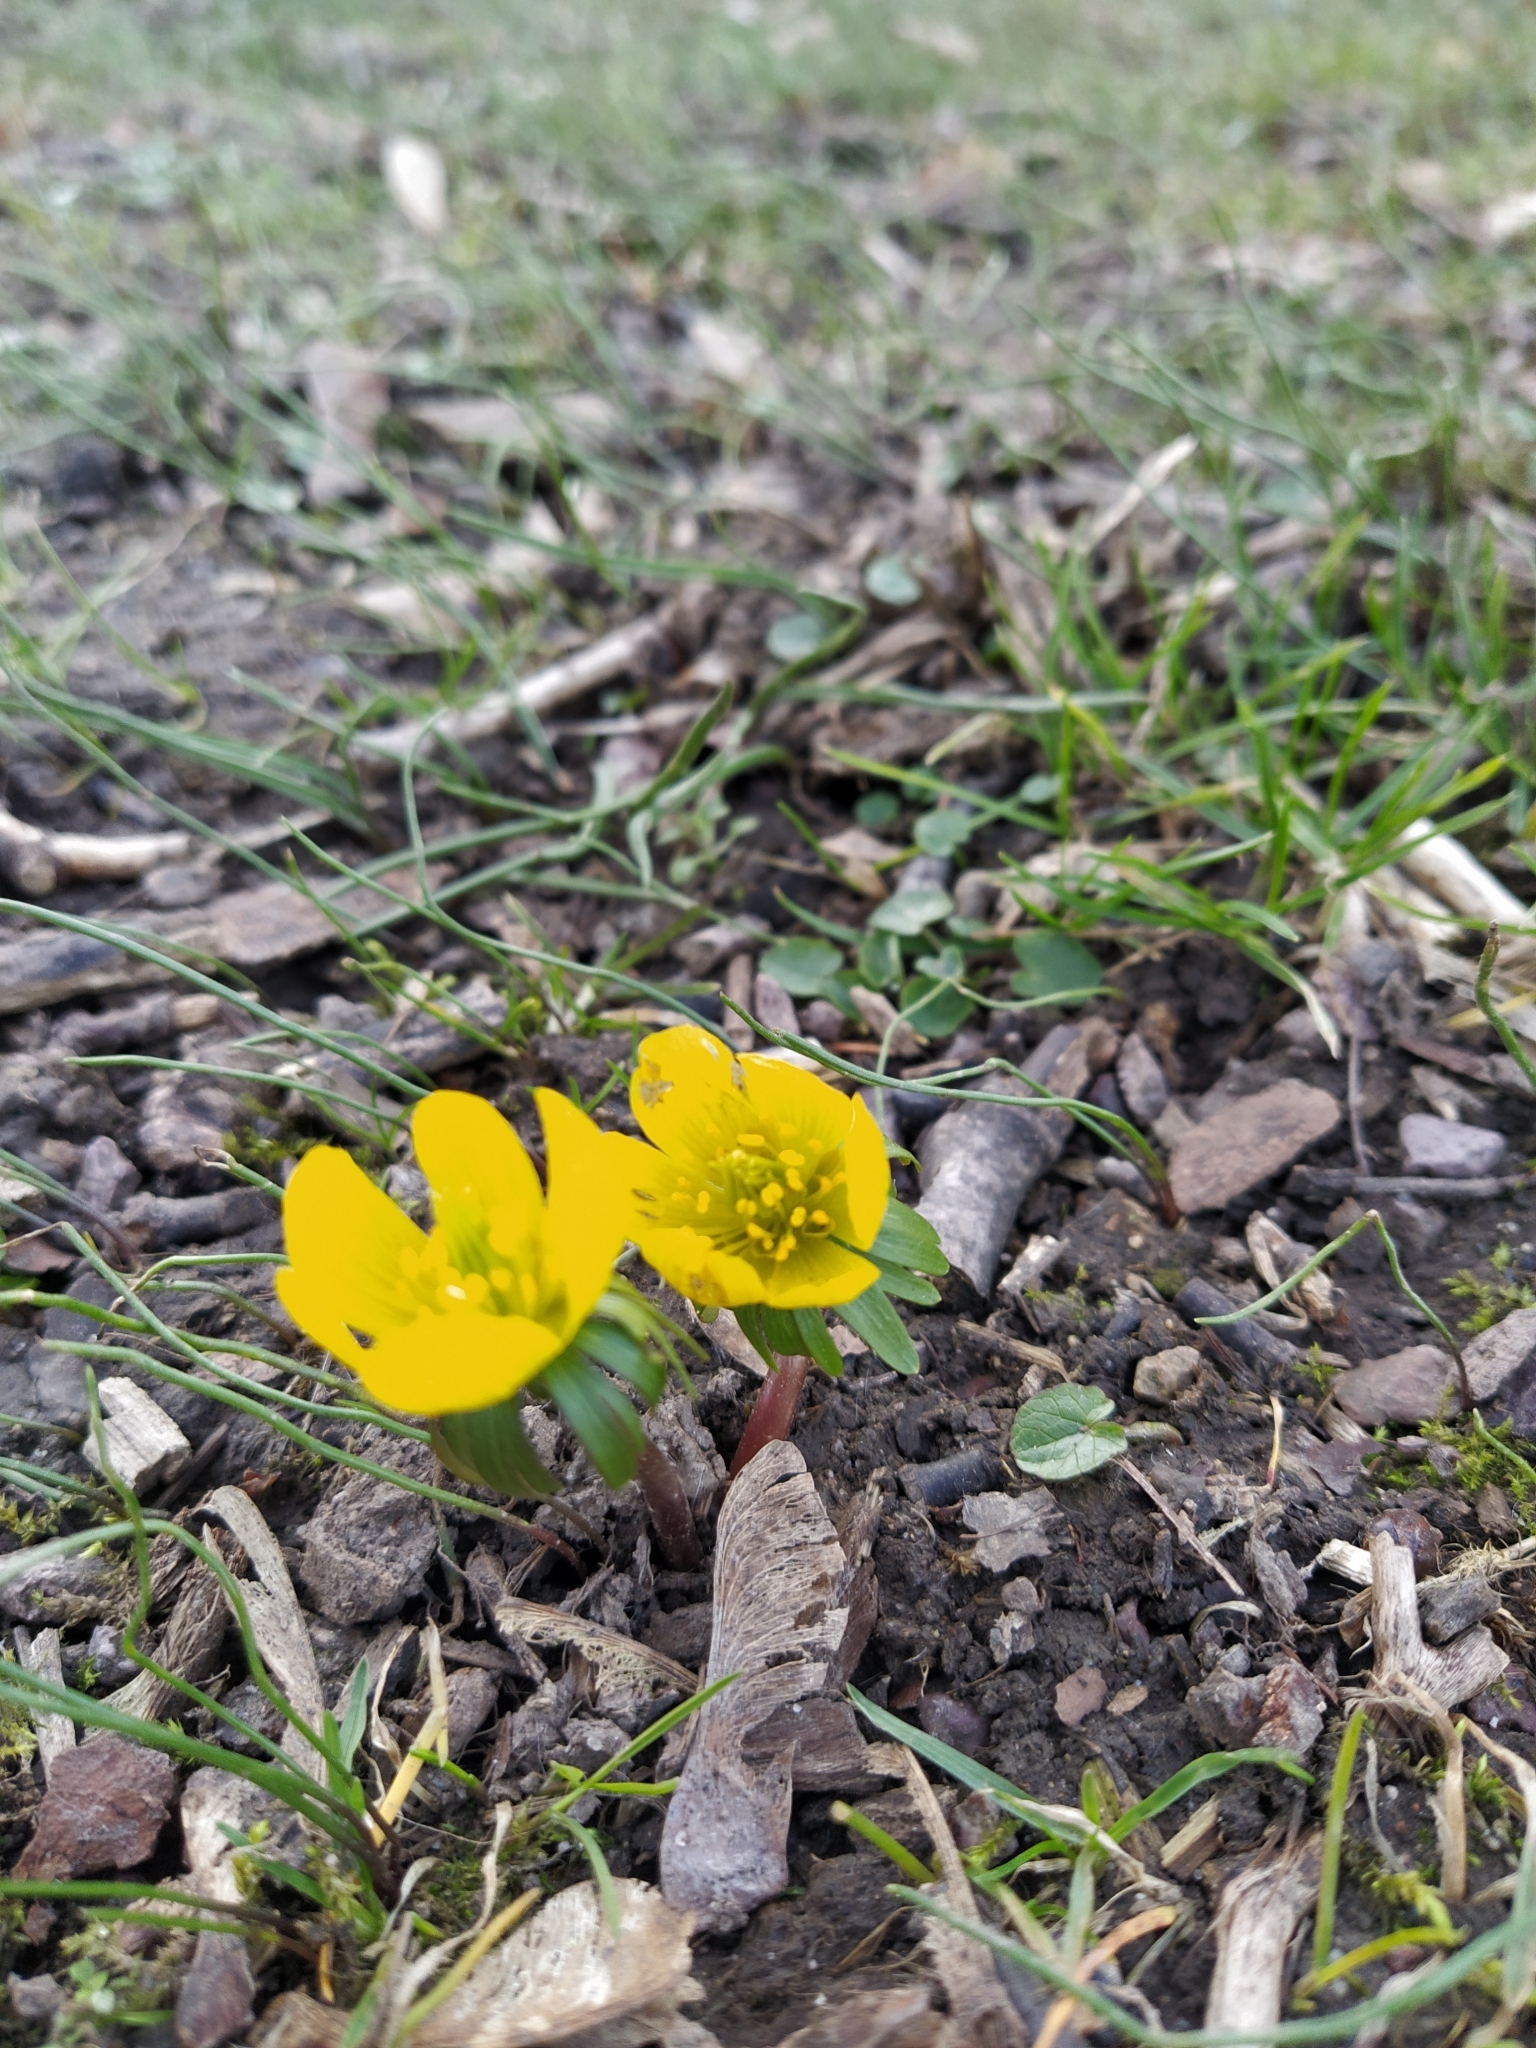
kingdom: Plantae
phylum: Tracheophyta
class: Magnoliopsida
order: Ranunculales
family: Ranunculaceae
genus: Eranthis
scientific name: Eranthis hyemalis
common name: Winter aconite
